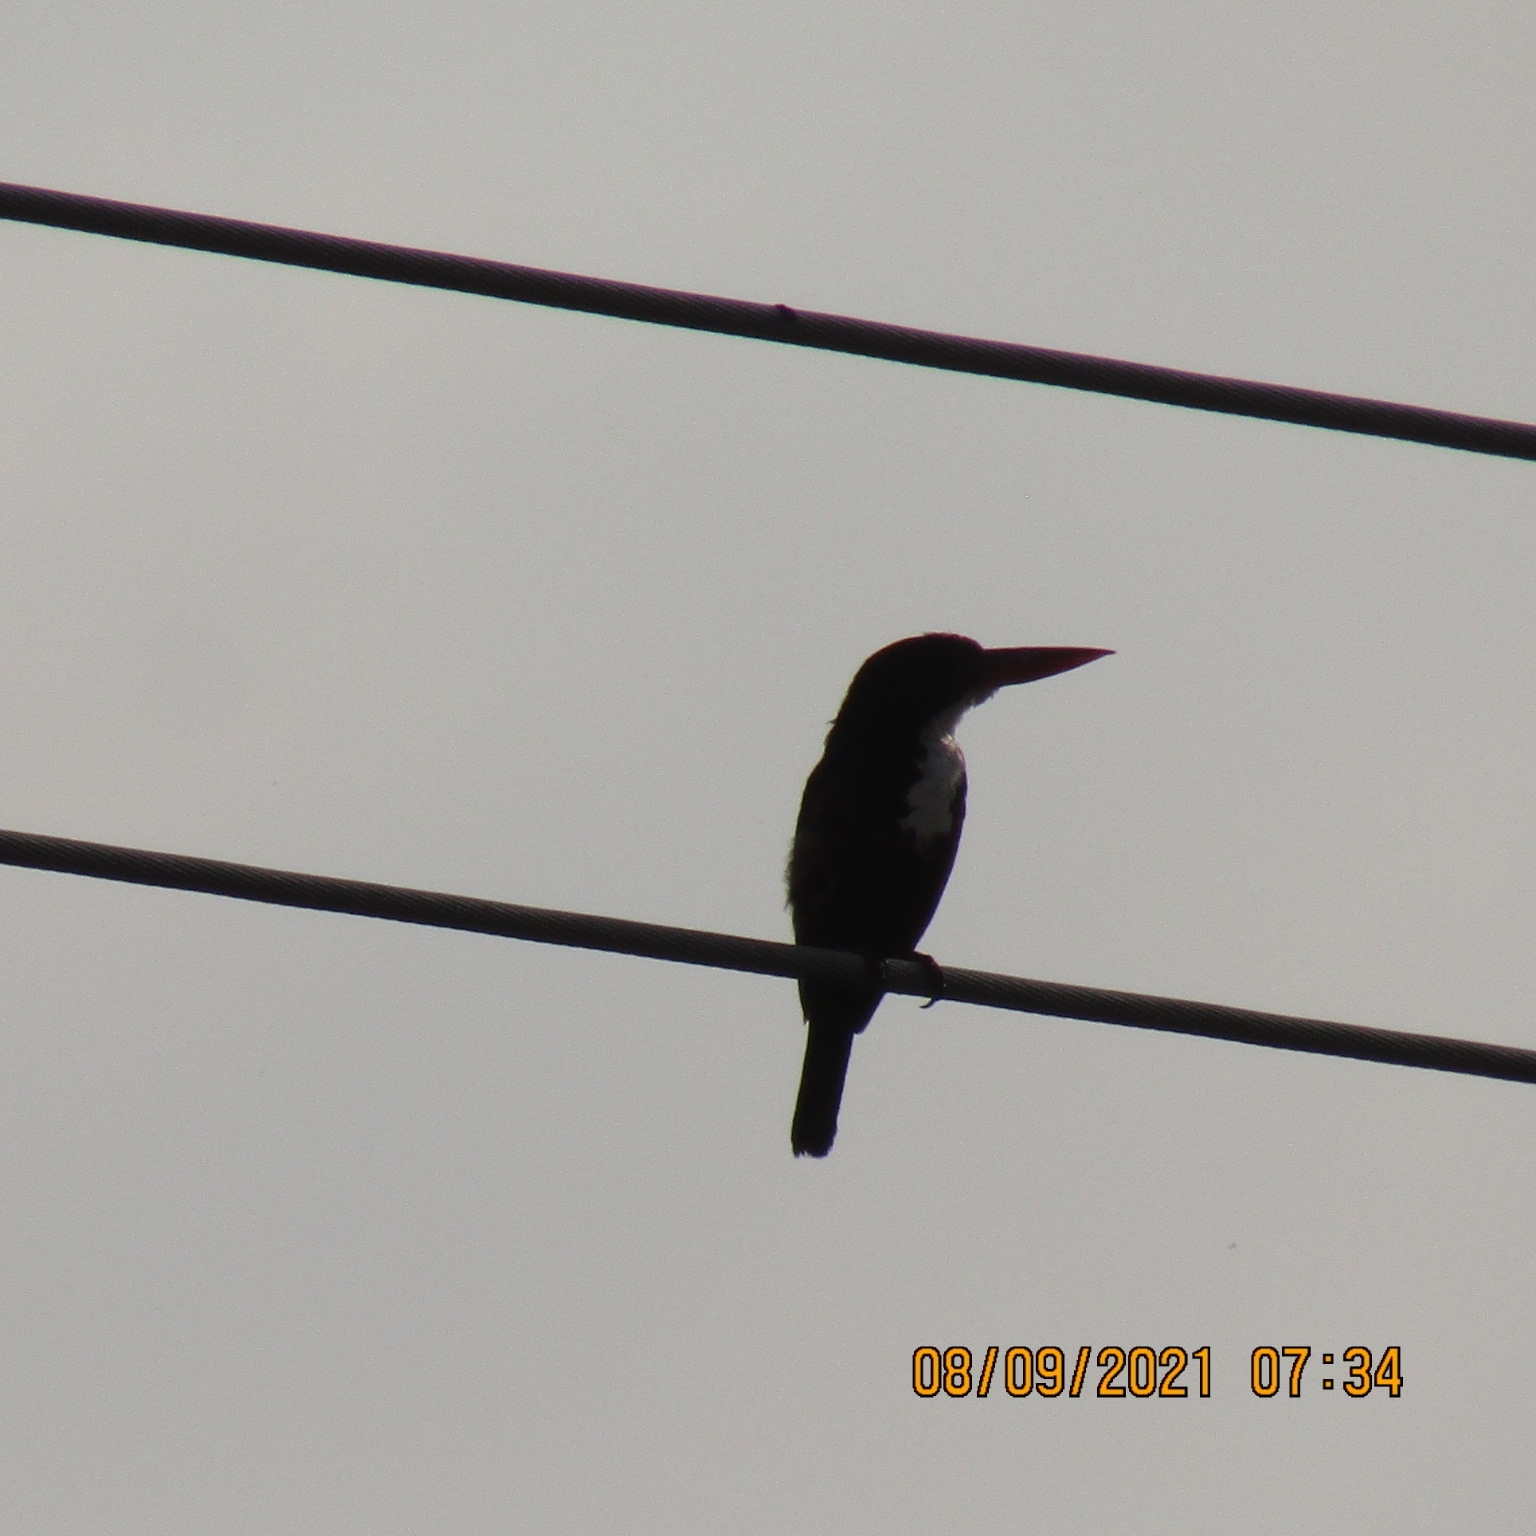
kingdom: Animalia
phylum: Chordata
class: Aves
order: Coraciiformes
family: Alcedinidae
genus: Halcyon
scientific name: Halcyon smyrnensis
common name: White-throated kingfisher
